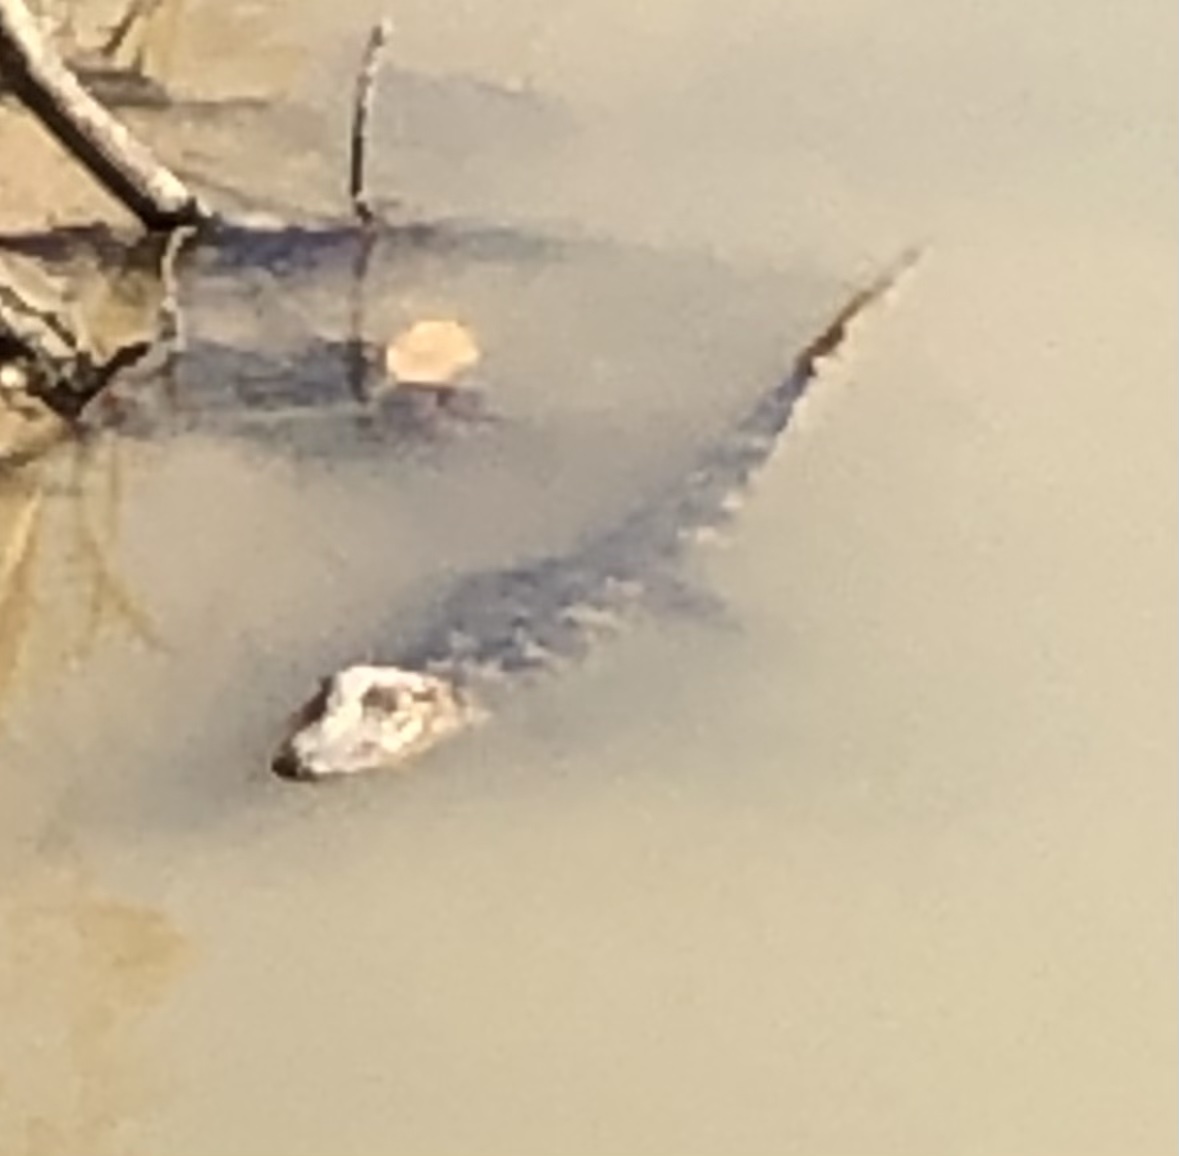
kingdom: Animalia
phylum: Chordata
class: Crocodylia
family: Alligatoridae
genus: Alligator
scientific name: Alligator mississippiensis
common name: American alligator
